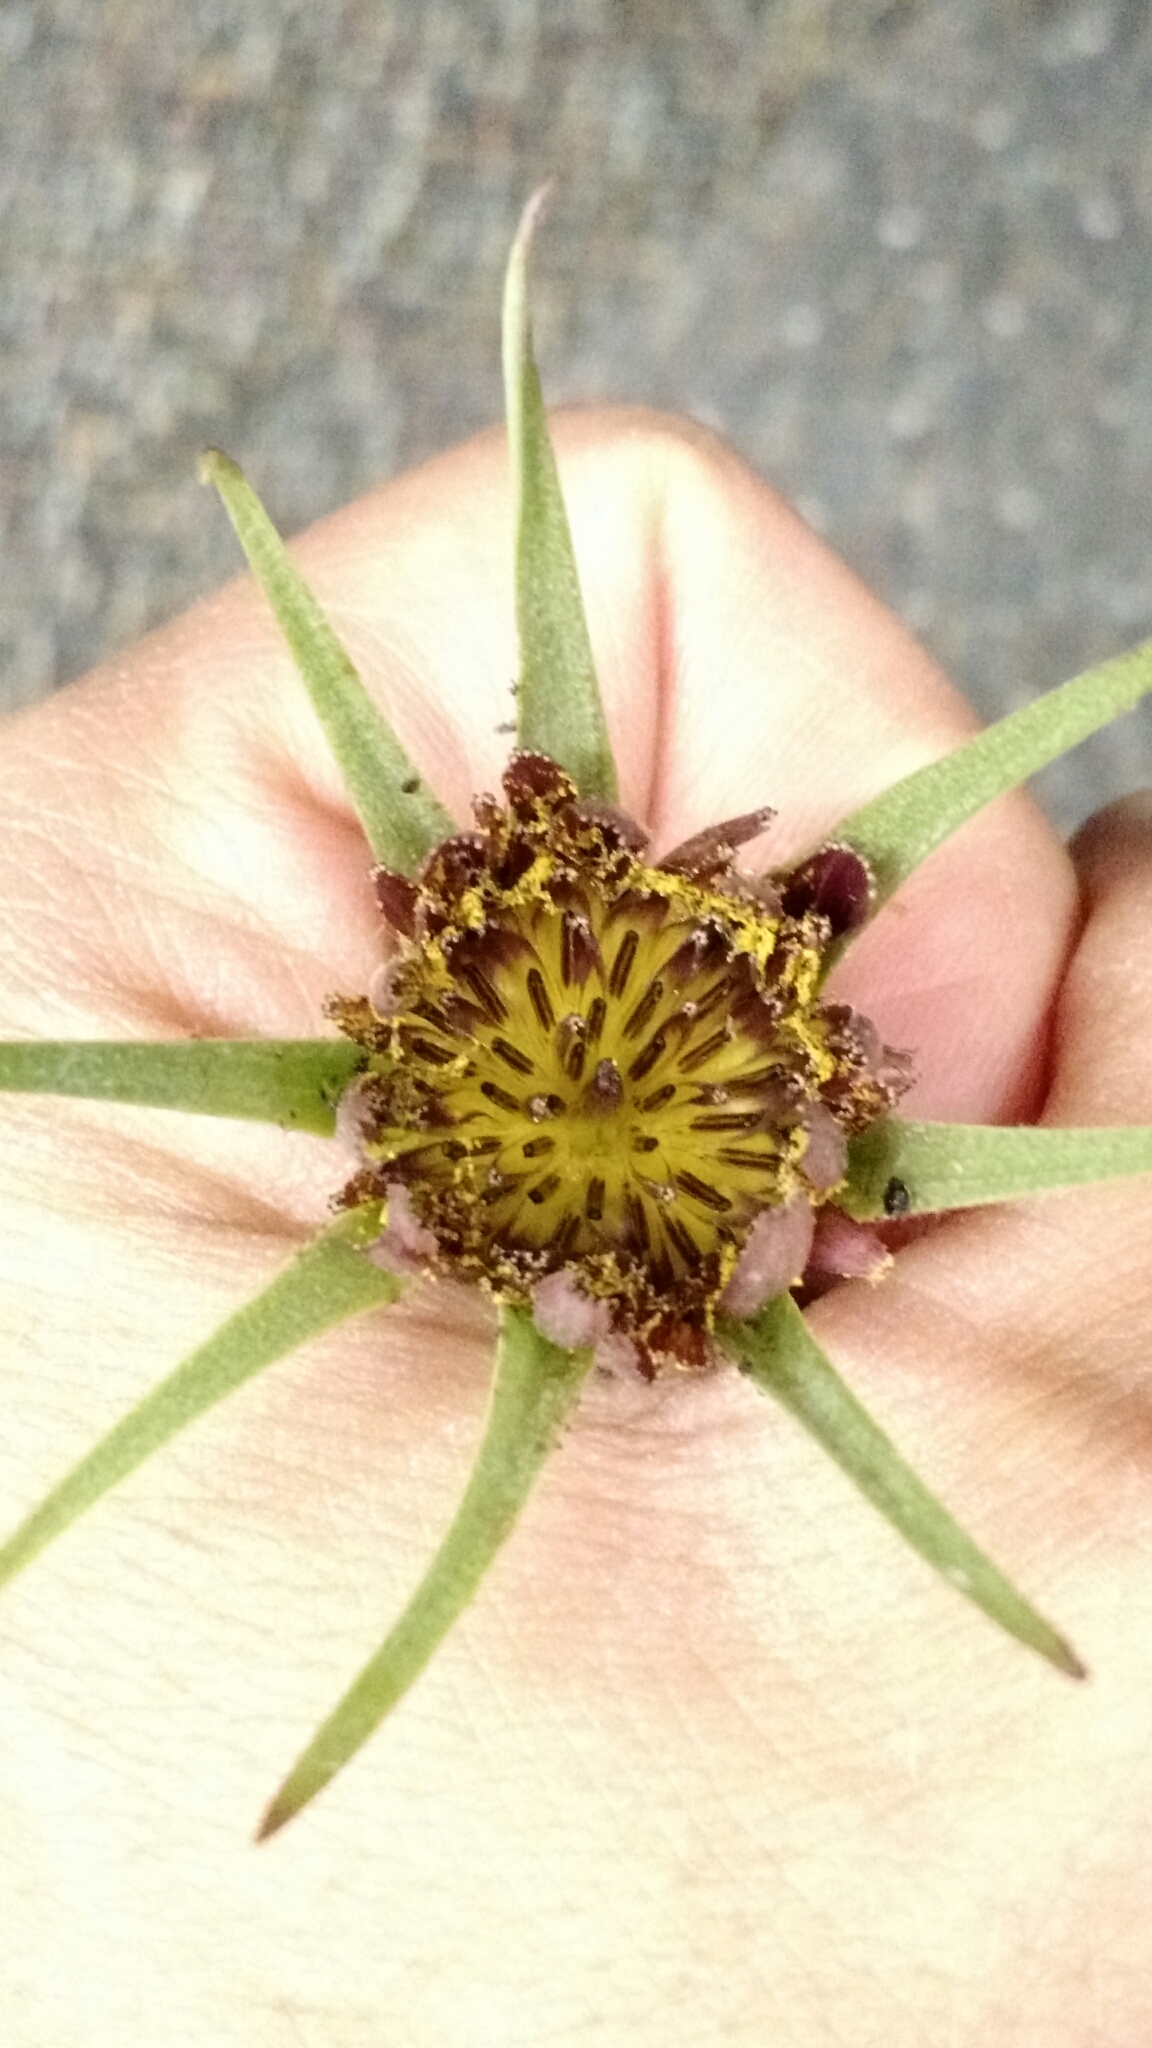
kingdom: Plantae
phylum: Tracheophyta
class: Magnoliopsida
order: Asterales
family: Asteraceae
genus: Tragopogon
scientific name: Tragopogon porrifolius
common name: Salsify
